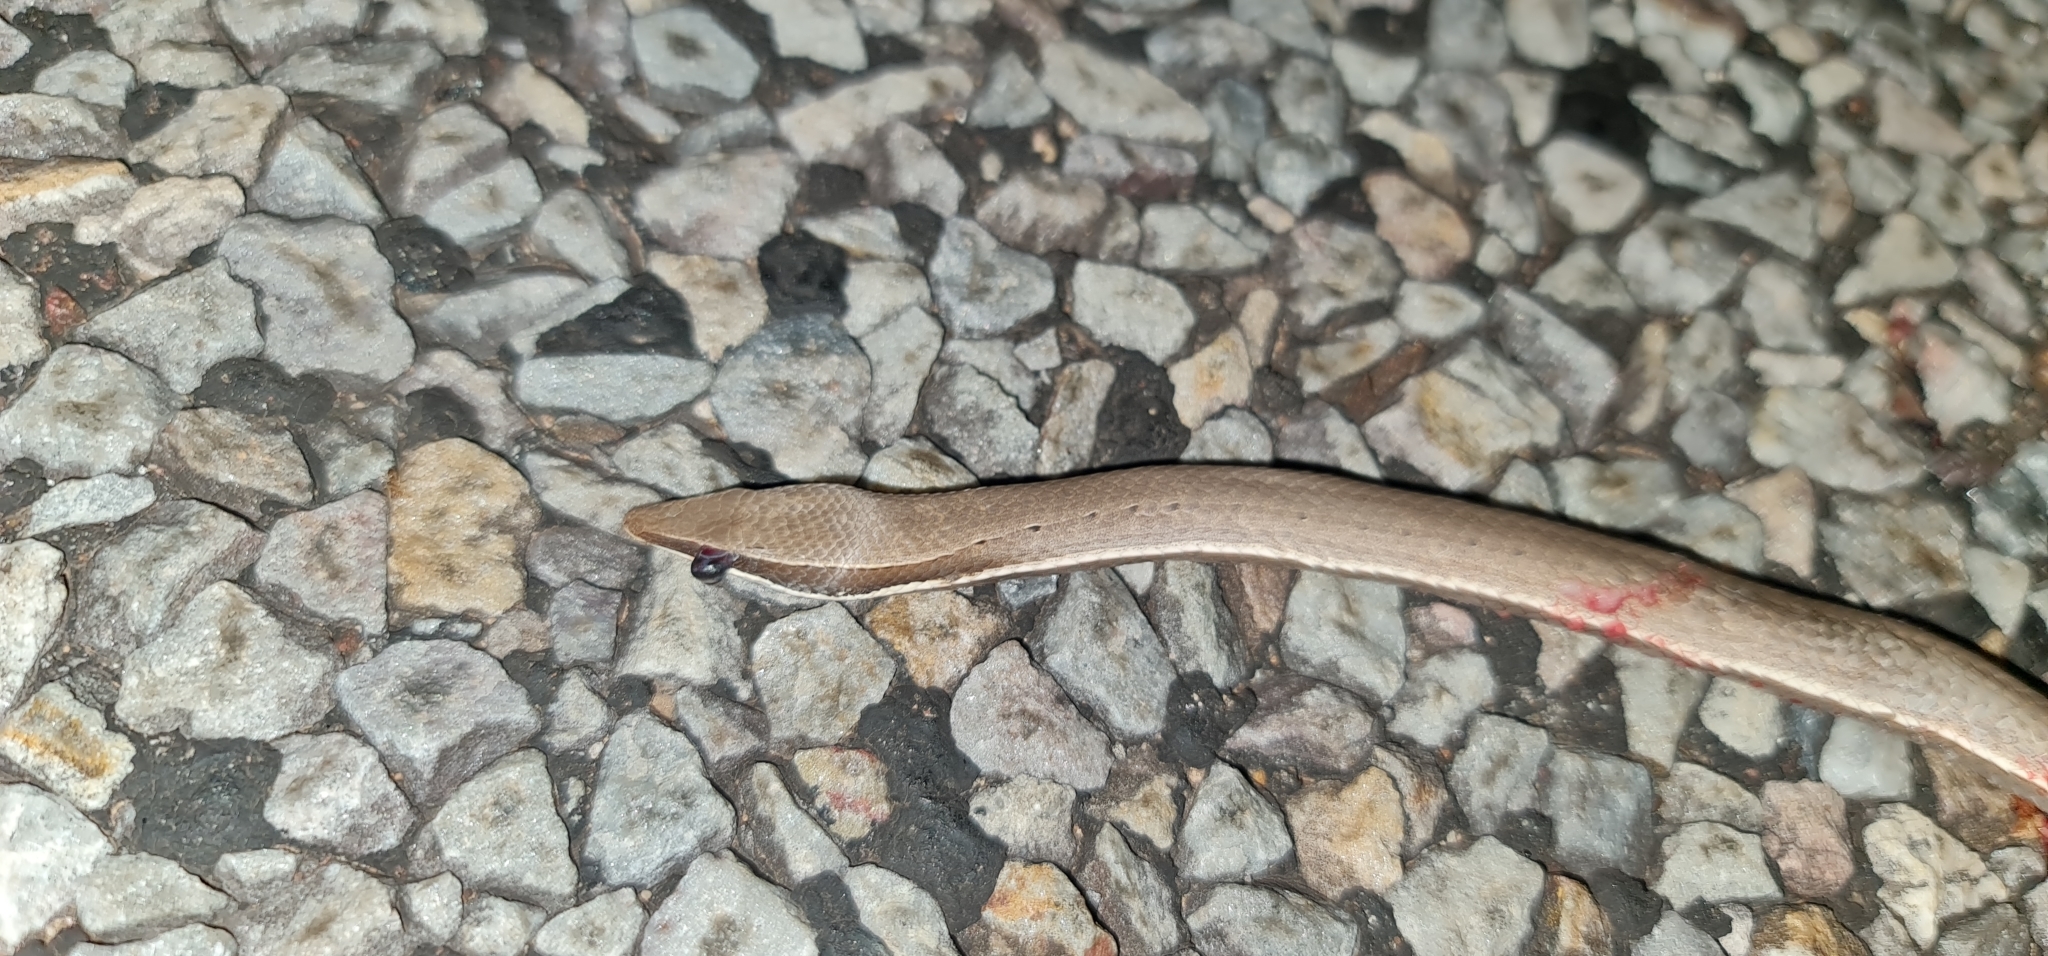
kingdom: Animalia
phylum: Chordata
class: Squamata
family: Pygopodidae
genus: Lialis
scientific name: Lialis burtonis
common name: Burton's legless lizard
